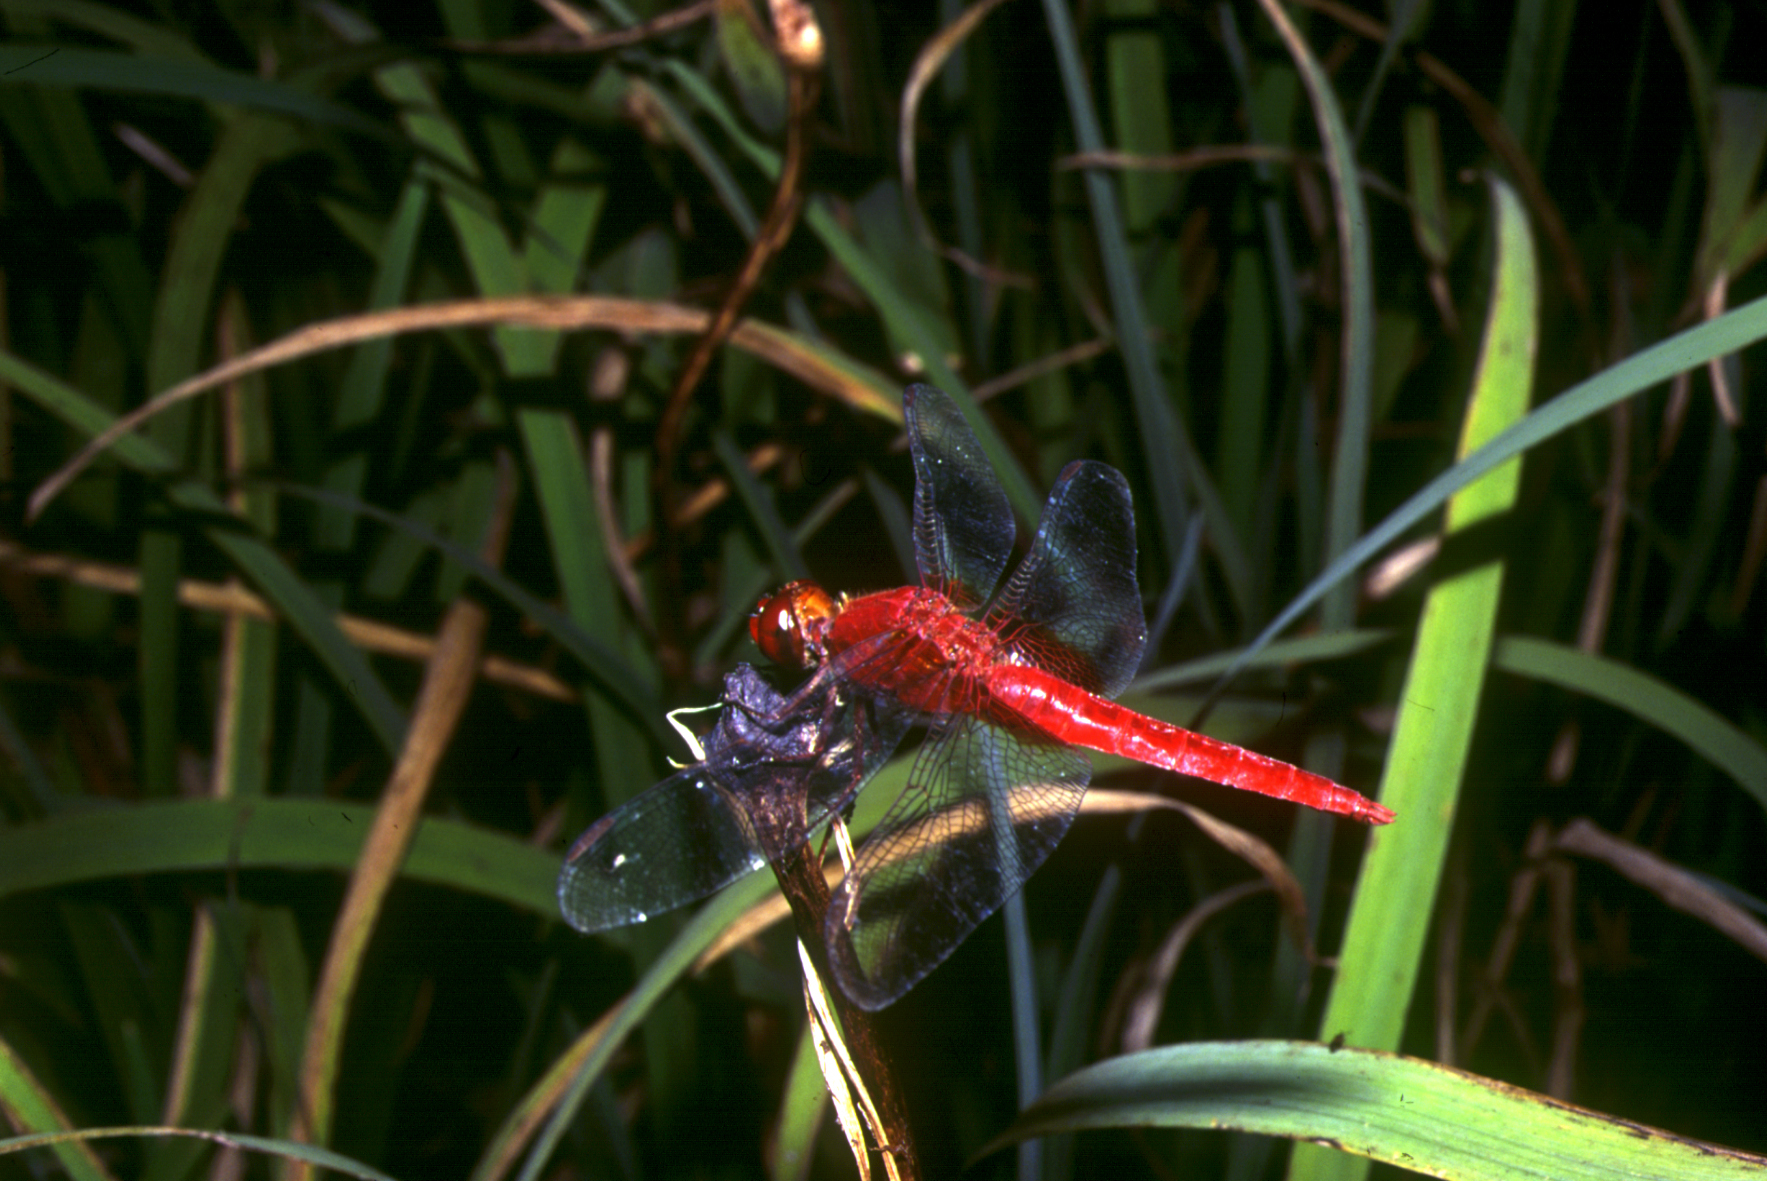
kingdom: Animalia
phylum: Arthropoda
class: Insecta
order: Odonata
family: Libellulidae
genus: Crocothemis
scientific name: Crocothemis servilia
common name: Scarlet skimmer
